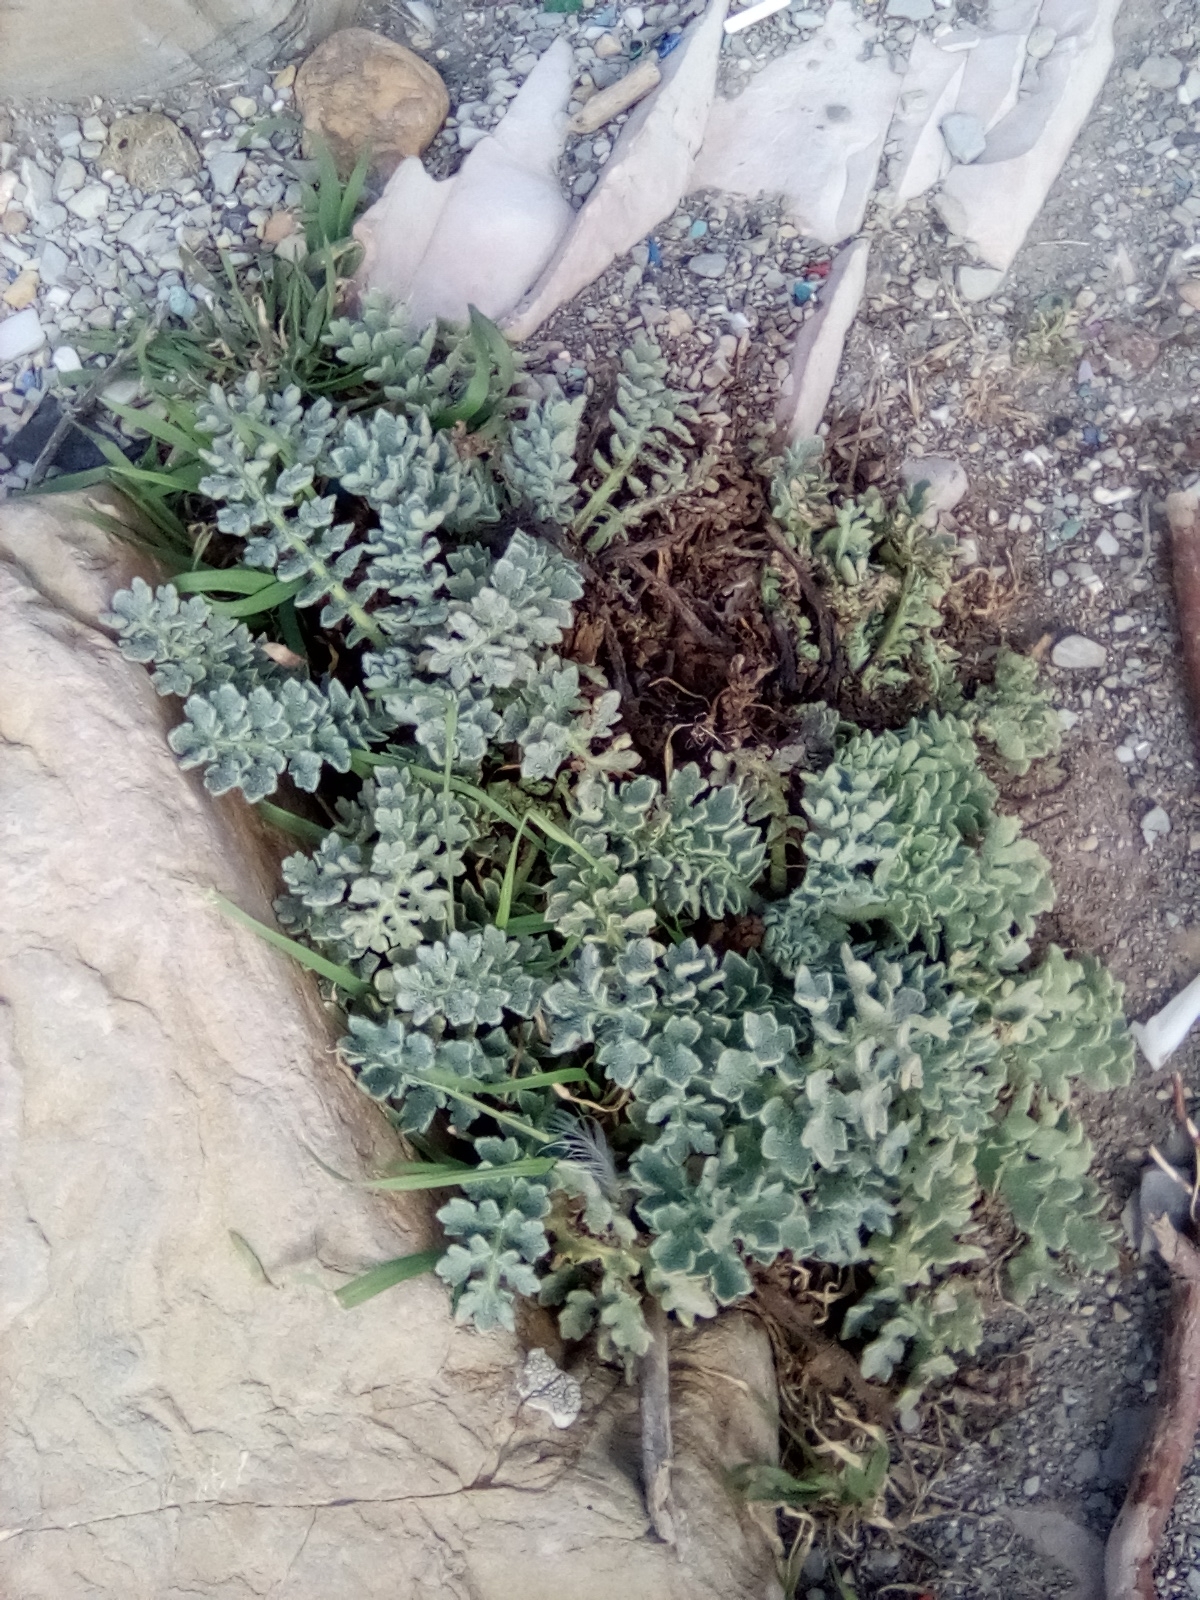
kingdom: Plantae
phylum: Tracheophyta
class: Magnoliopsida
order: Ranunculales
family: Papaveraceae
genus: Glaucium
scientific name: Glaucium flavum
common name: Yellow horned-poppy
